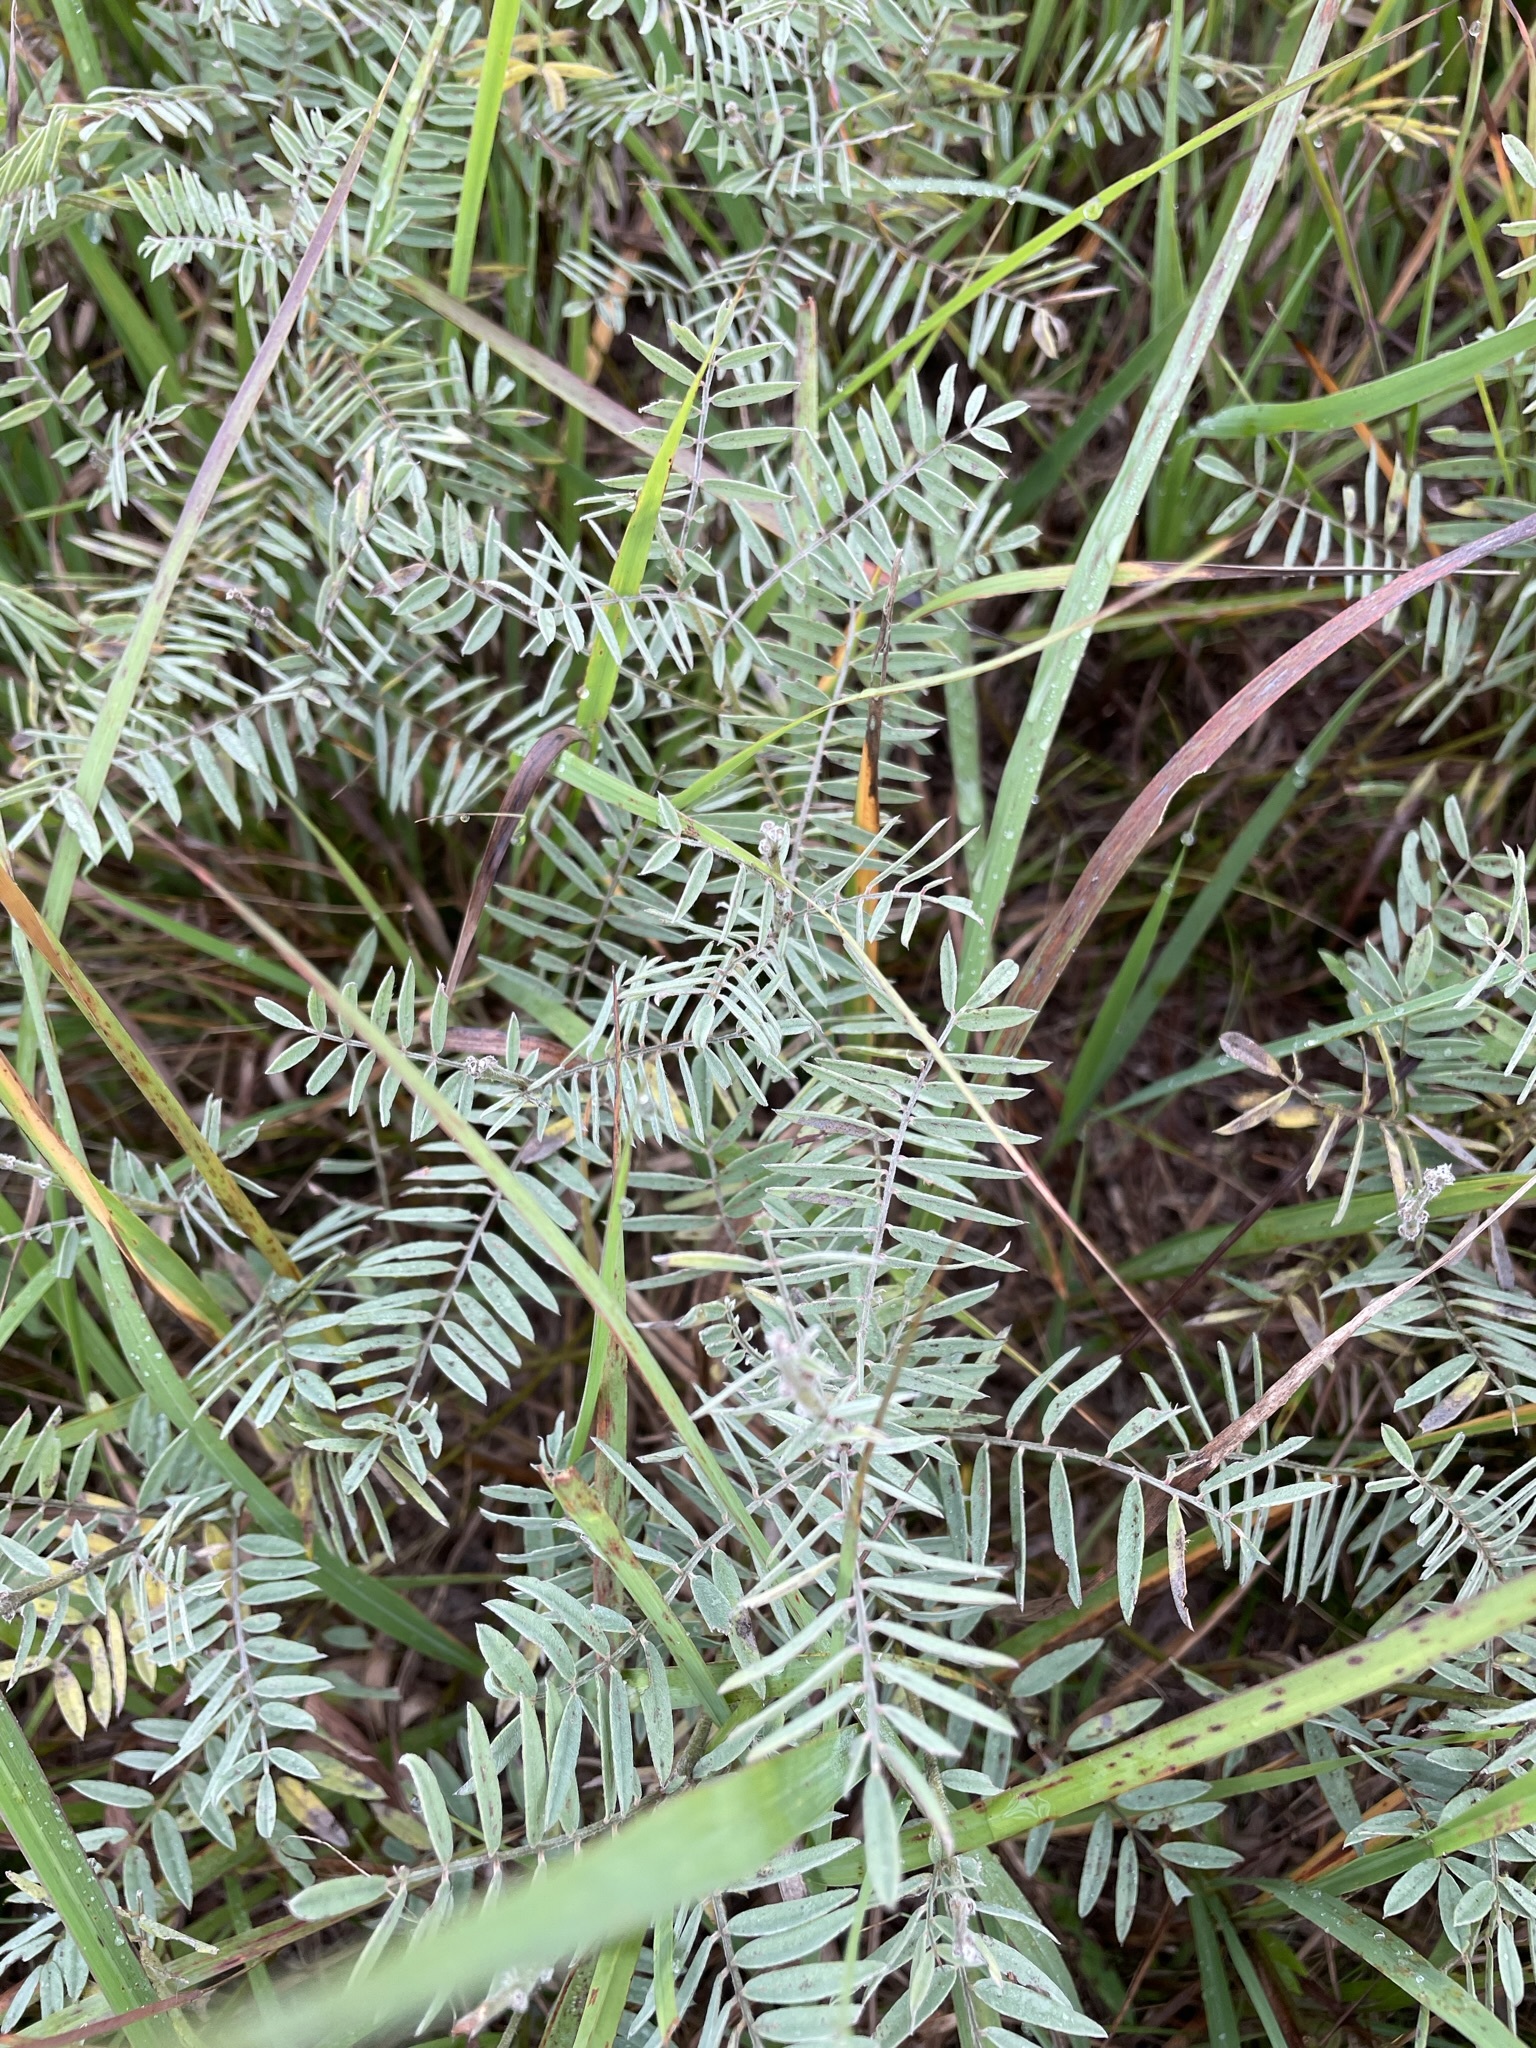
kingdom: Plantae
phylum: Tracheophyta
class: Magnoliopsida
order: Fabales
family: Fabaceae
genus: Tephrosia
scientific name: Tephrosia virginiana
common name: Rabbit-pea
